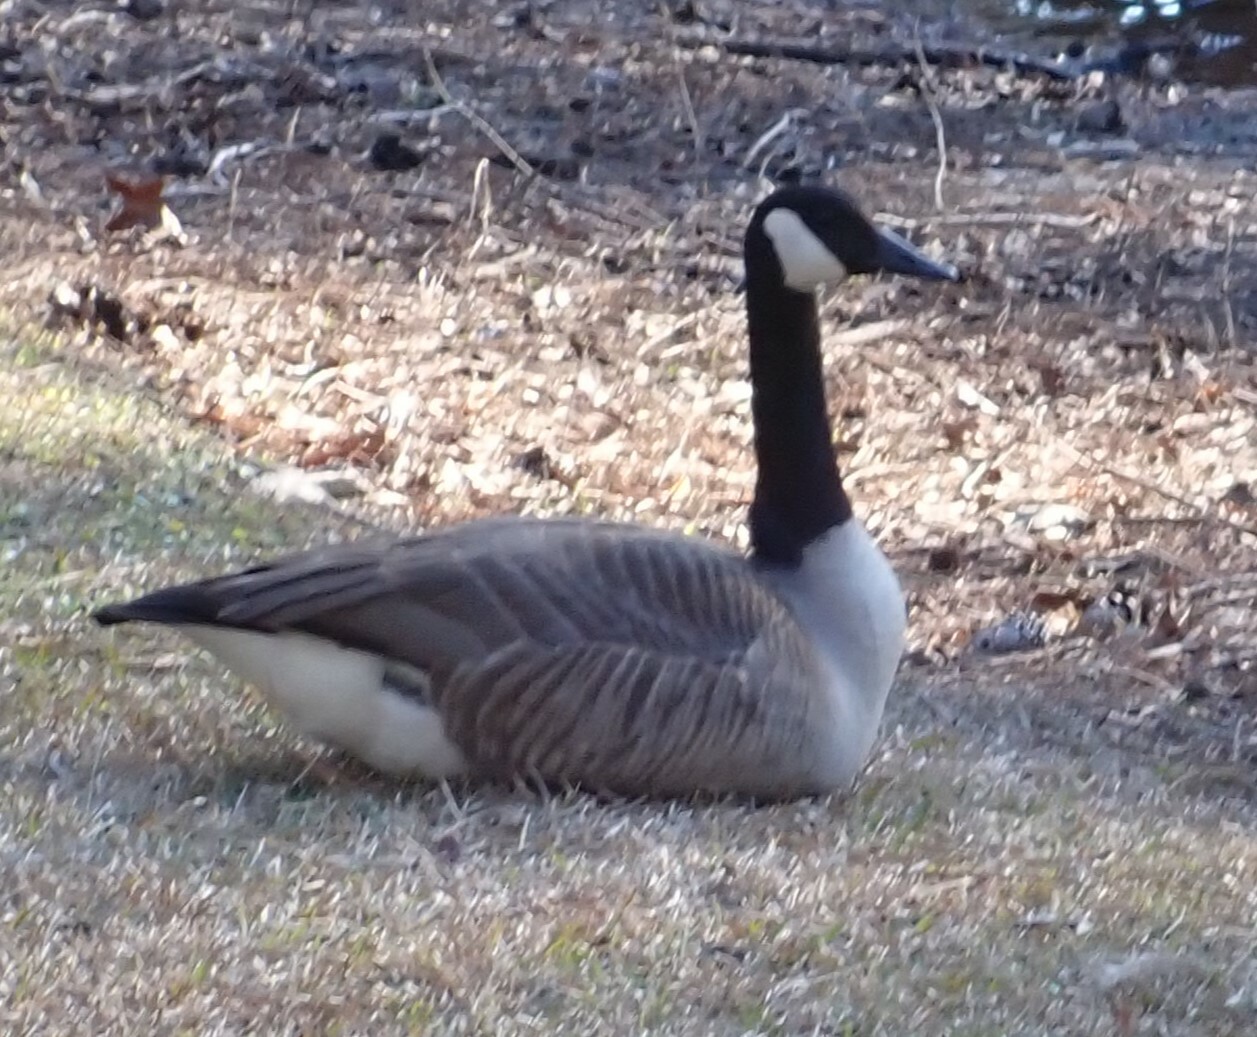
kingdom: Animalia
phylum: Chordata
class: Aves
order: Anseriformes
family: Anatidae
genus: Branta
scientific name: Branta canadensis
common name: Canada goose
